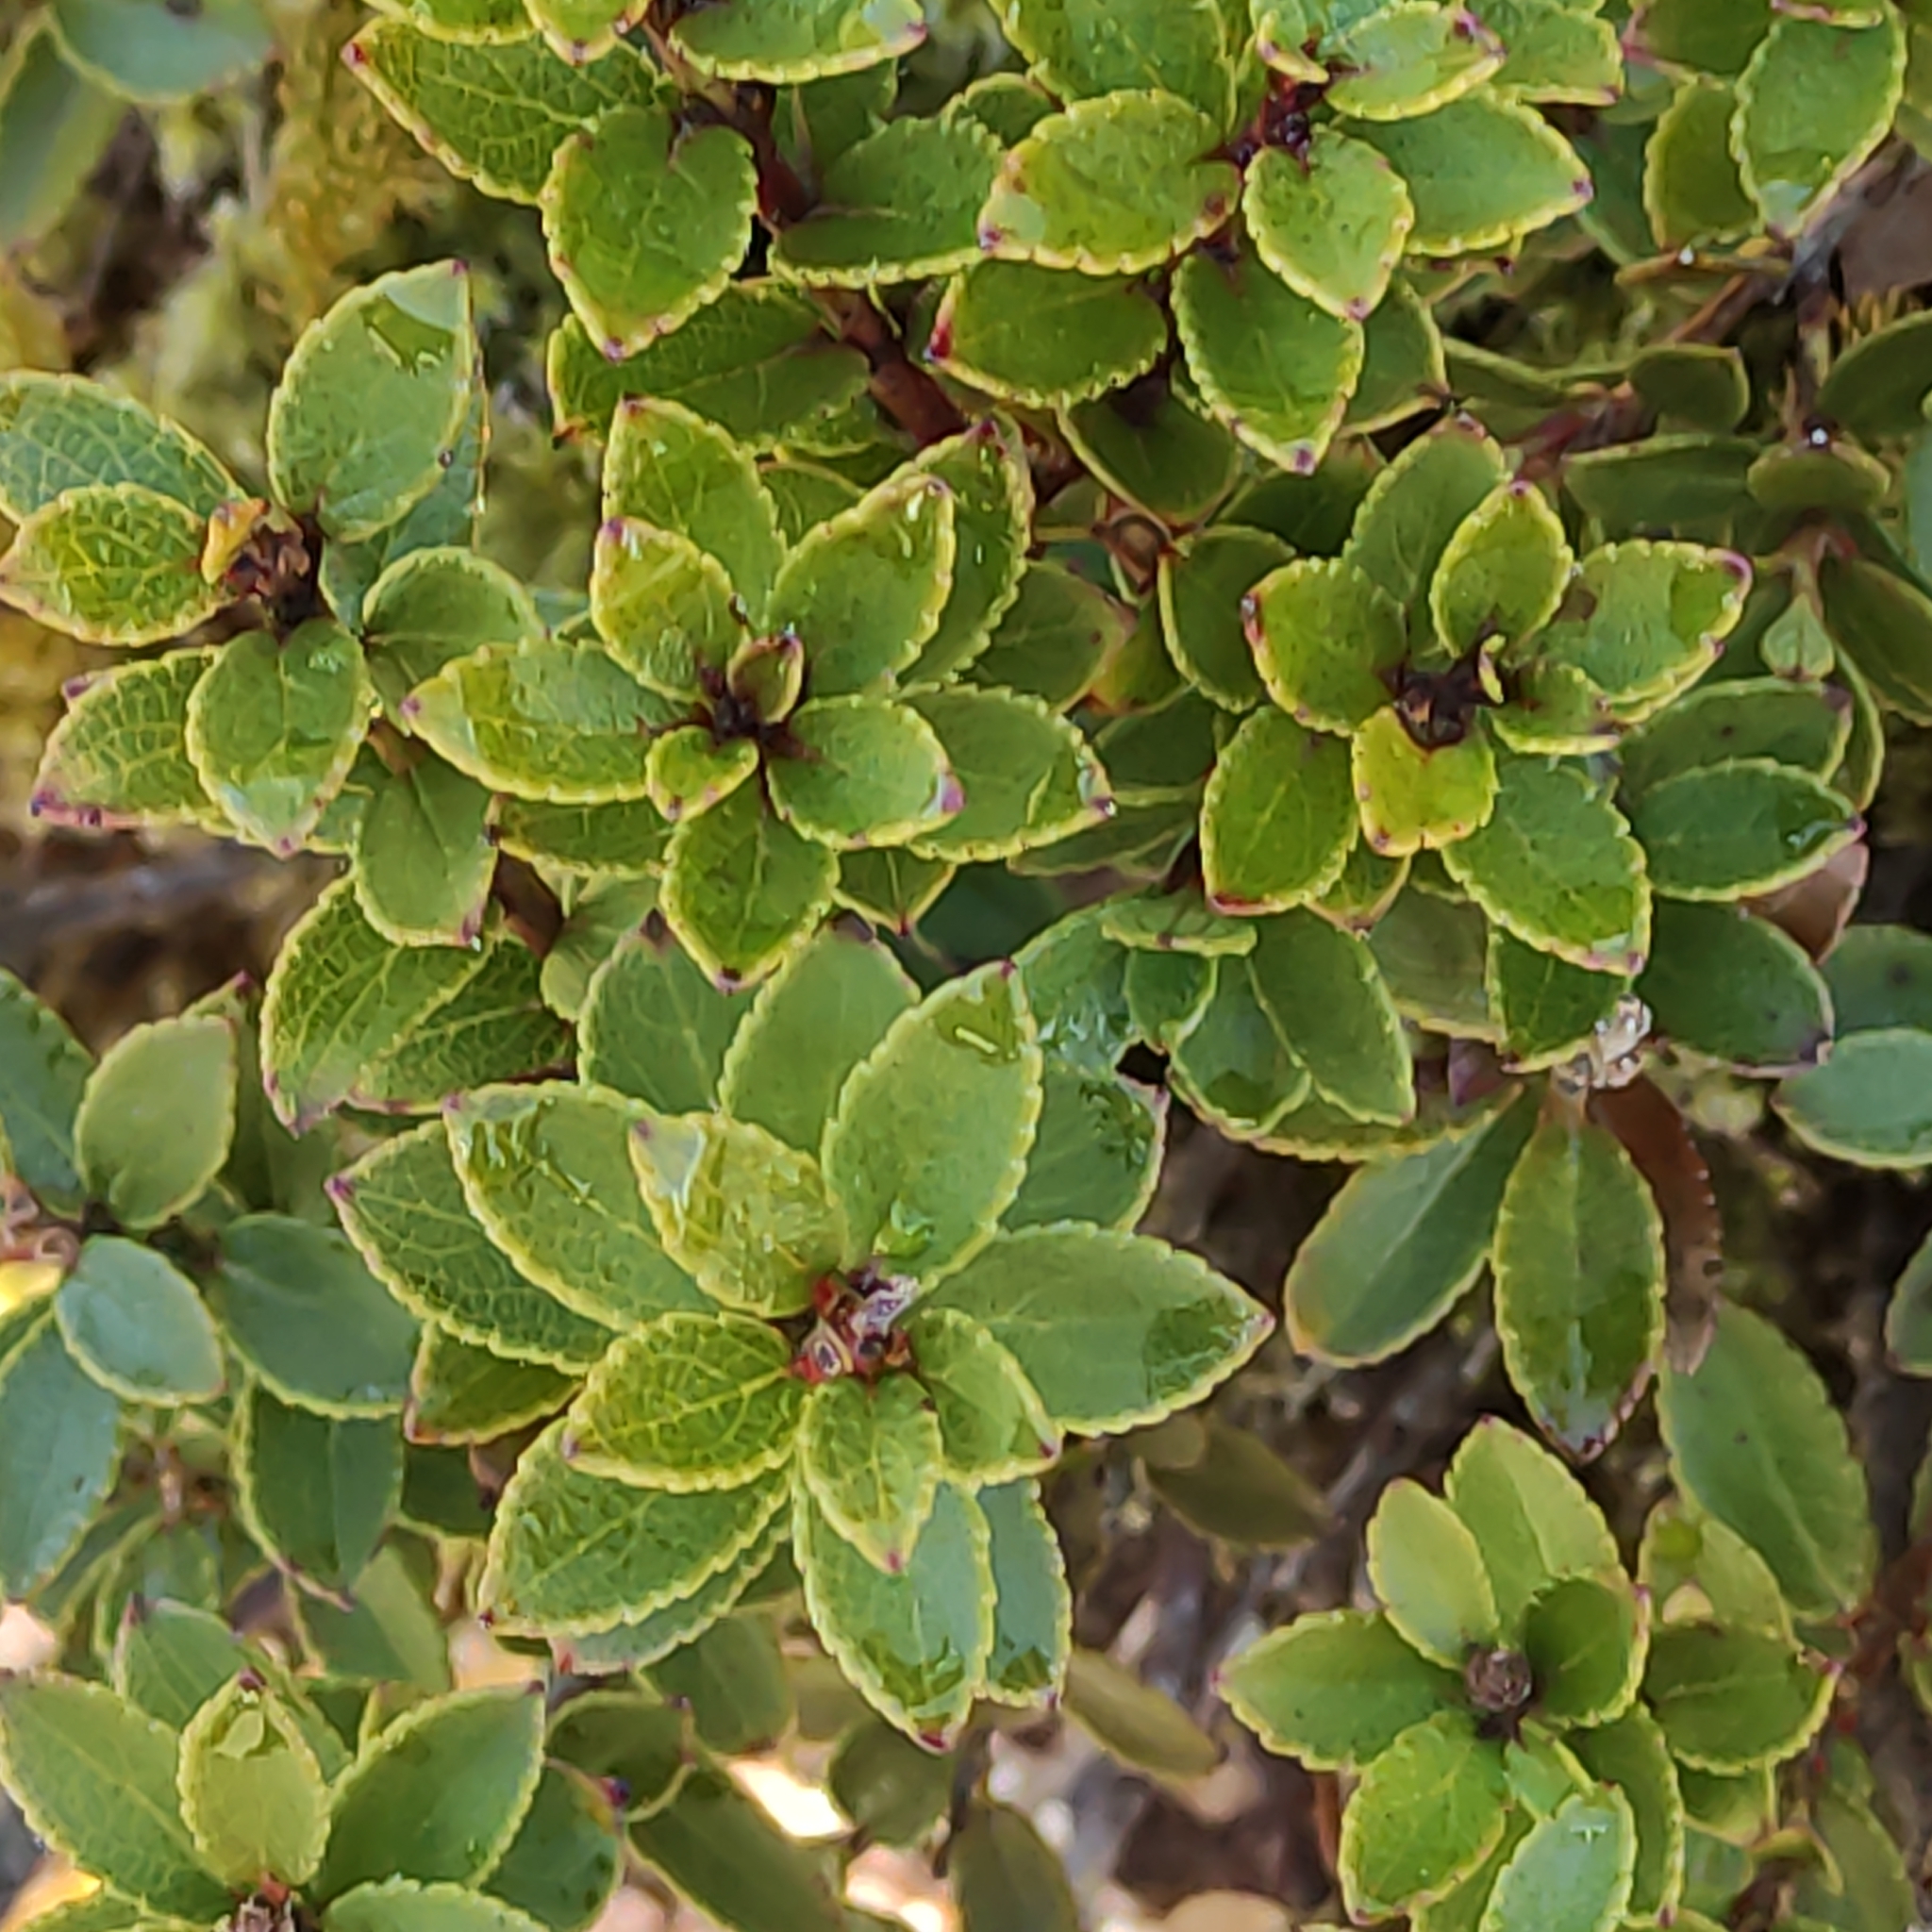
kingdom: Plantae
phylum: Tracheophyta
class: Magnoliopsida
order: Ericales
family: Ericaceae
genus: Gaultheria
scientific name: Gaultheria crassa
